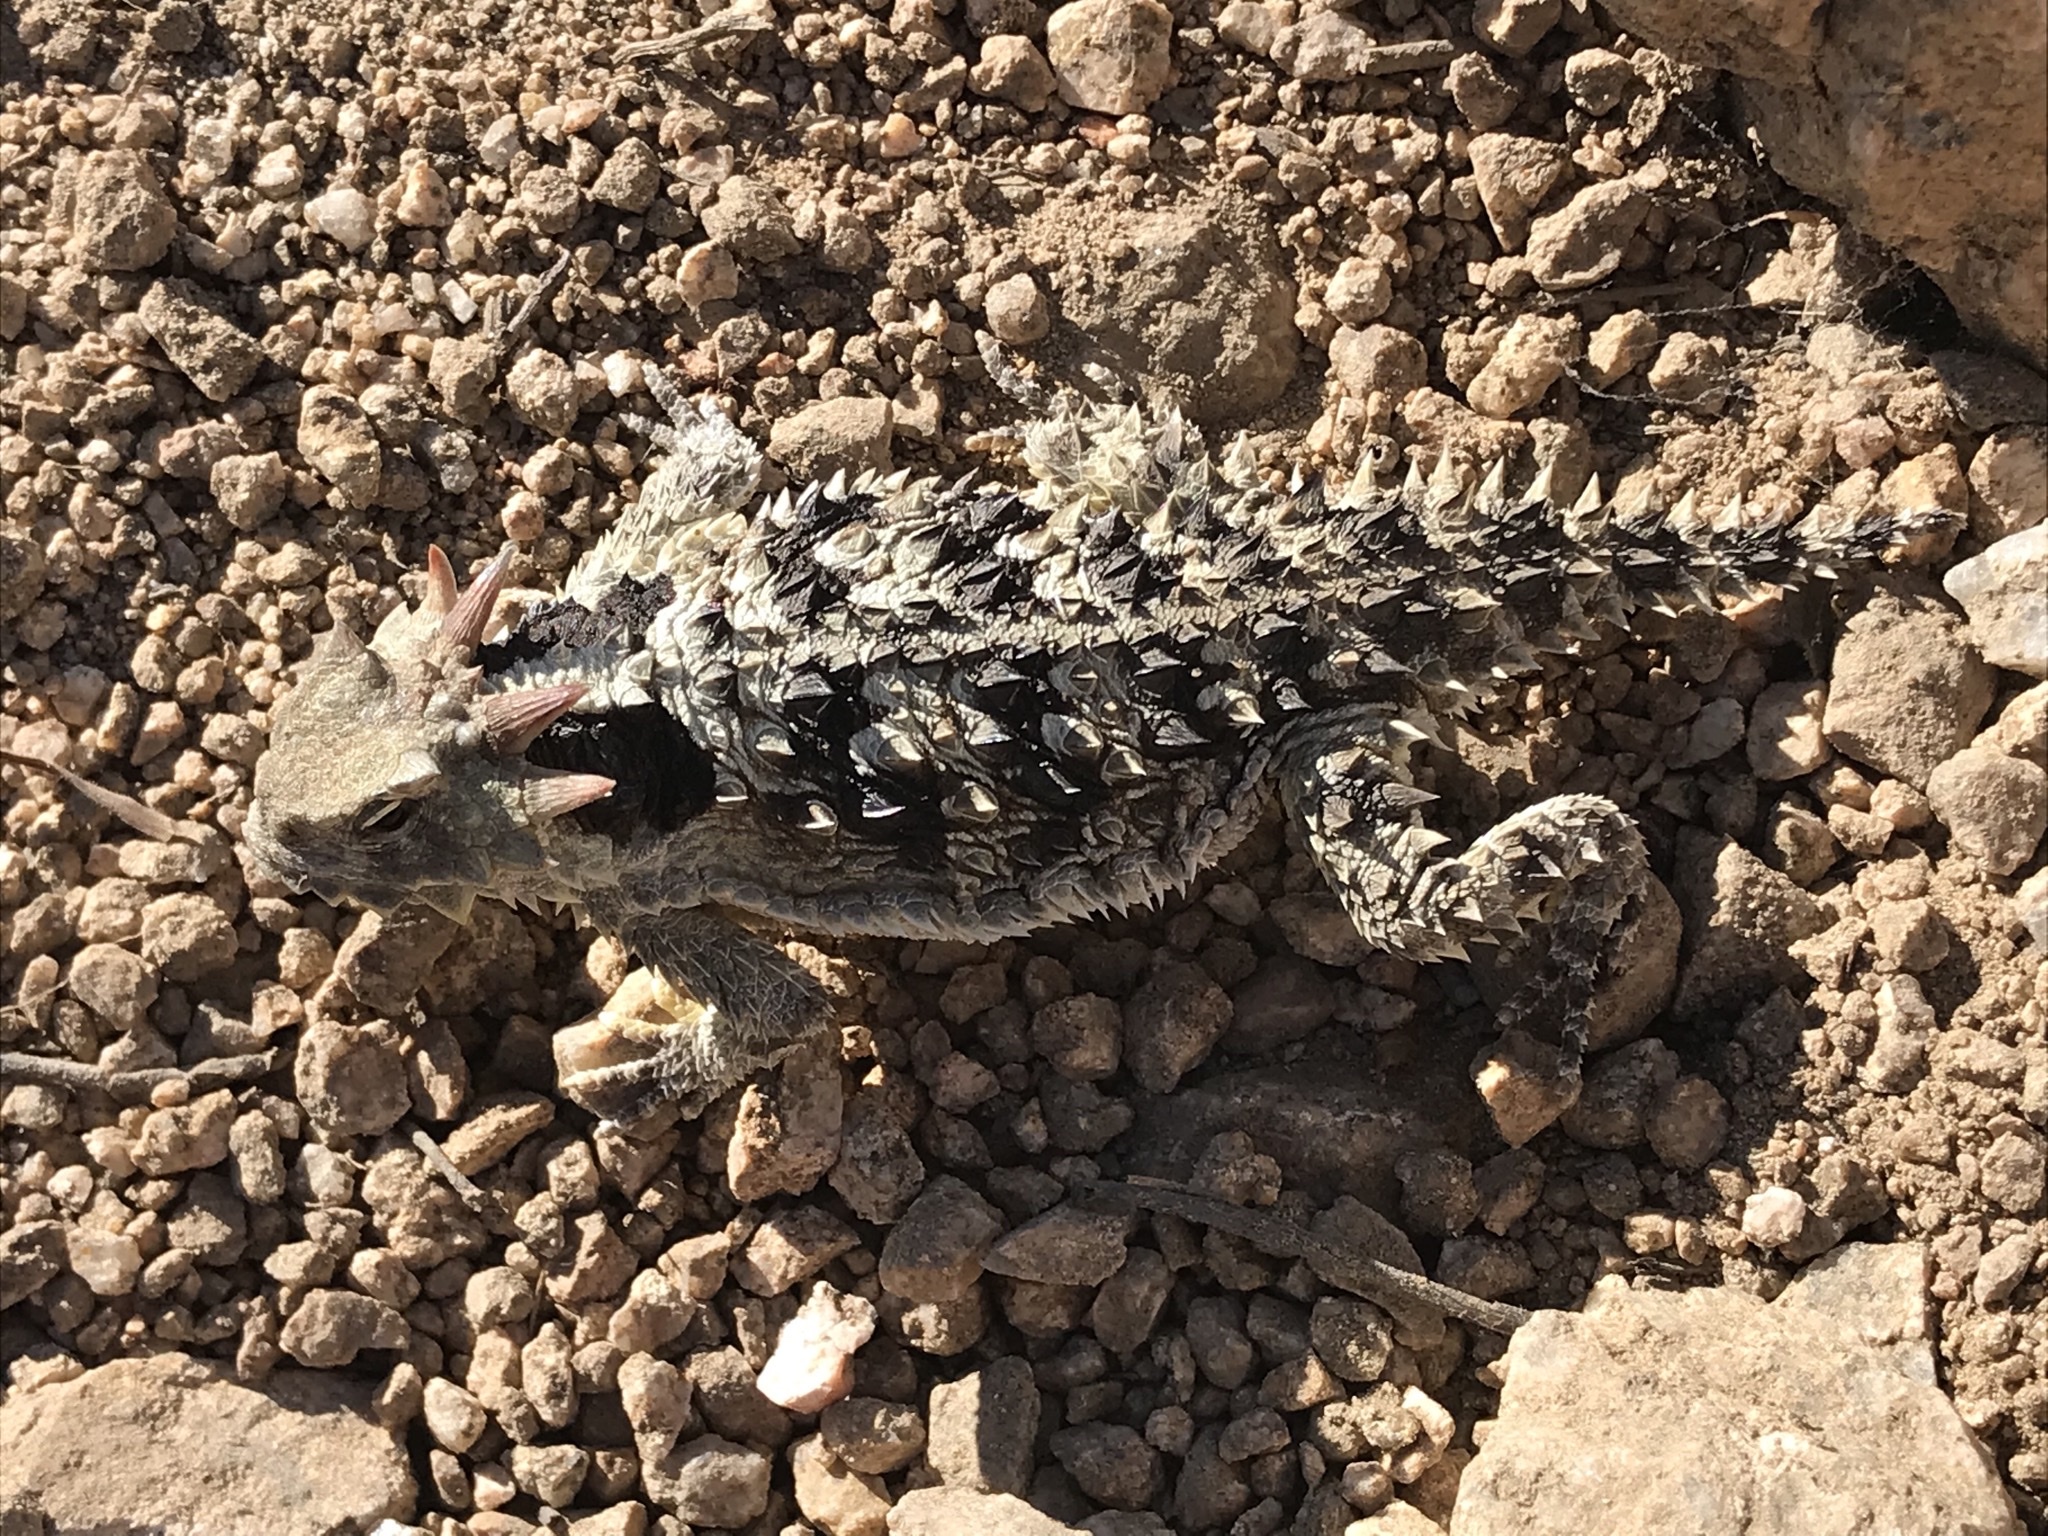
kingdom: Animalia
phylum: Chordata
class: Squamata
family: Phrynosomatidae
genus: Phrynosoma
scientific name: Phrynosoma blainvillii
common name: San diego horned lizard
